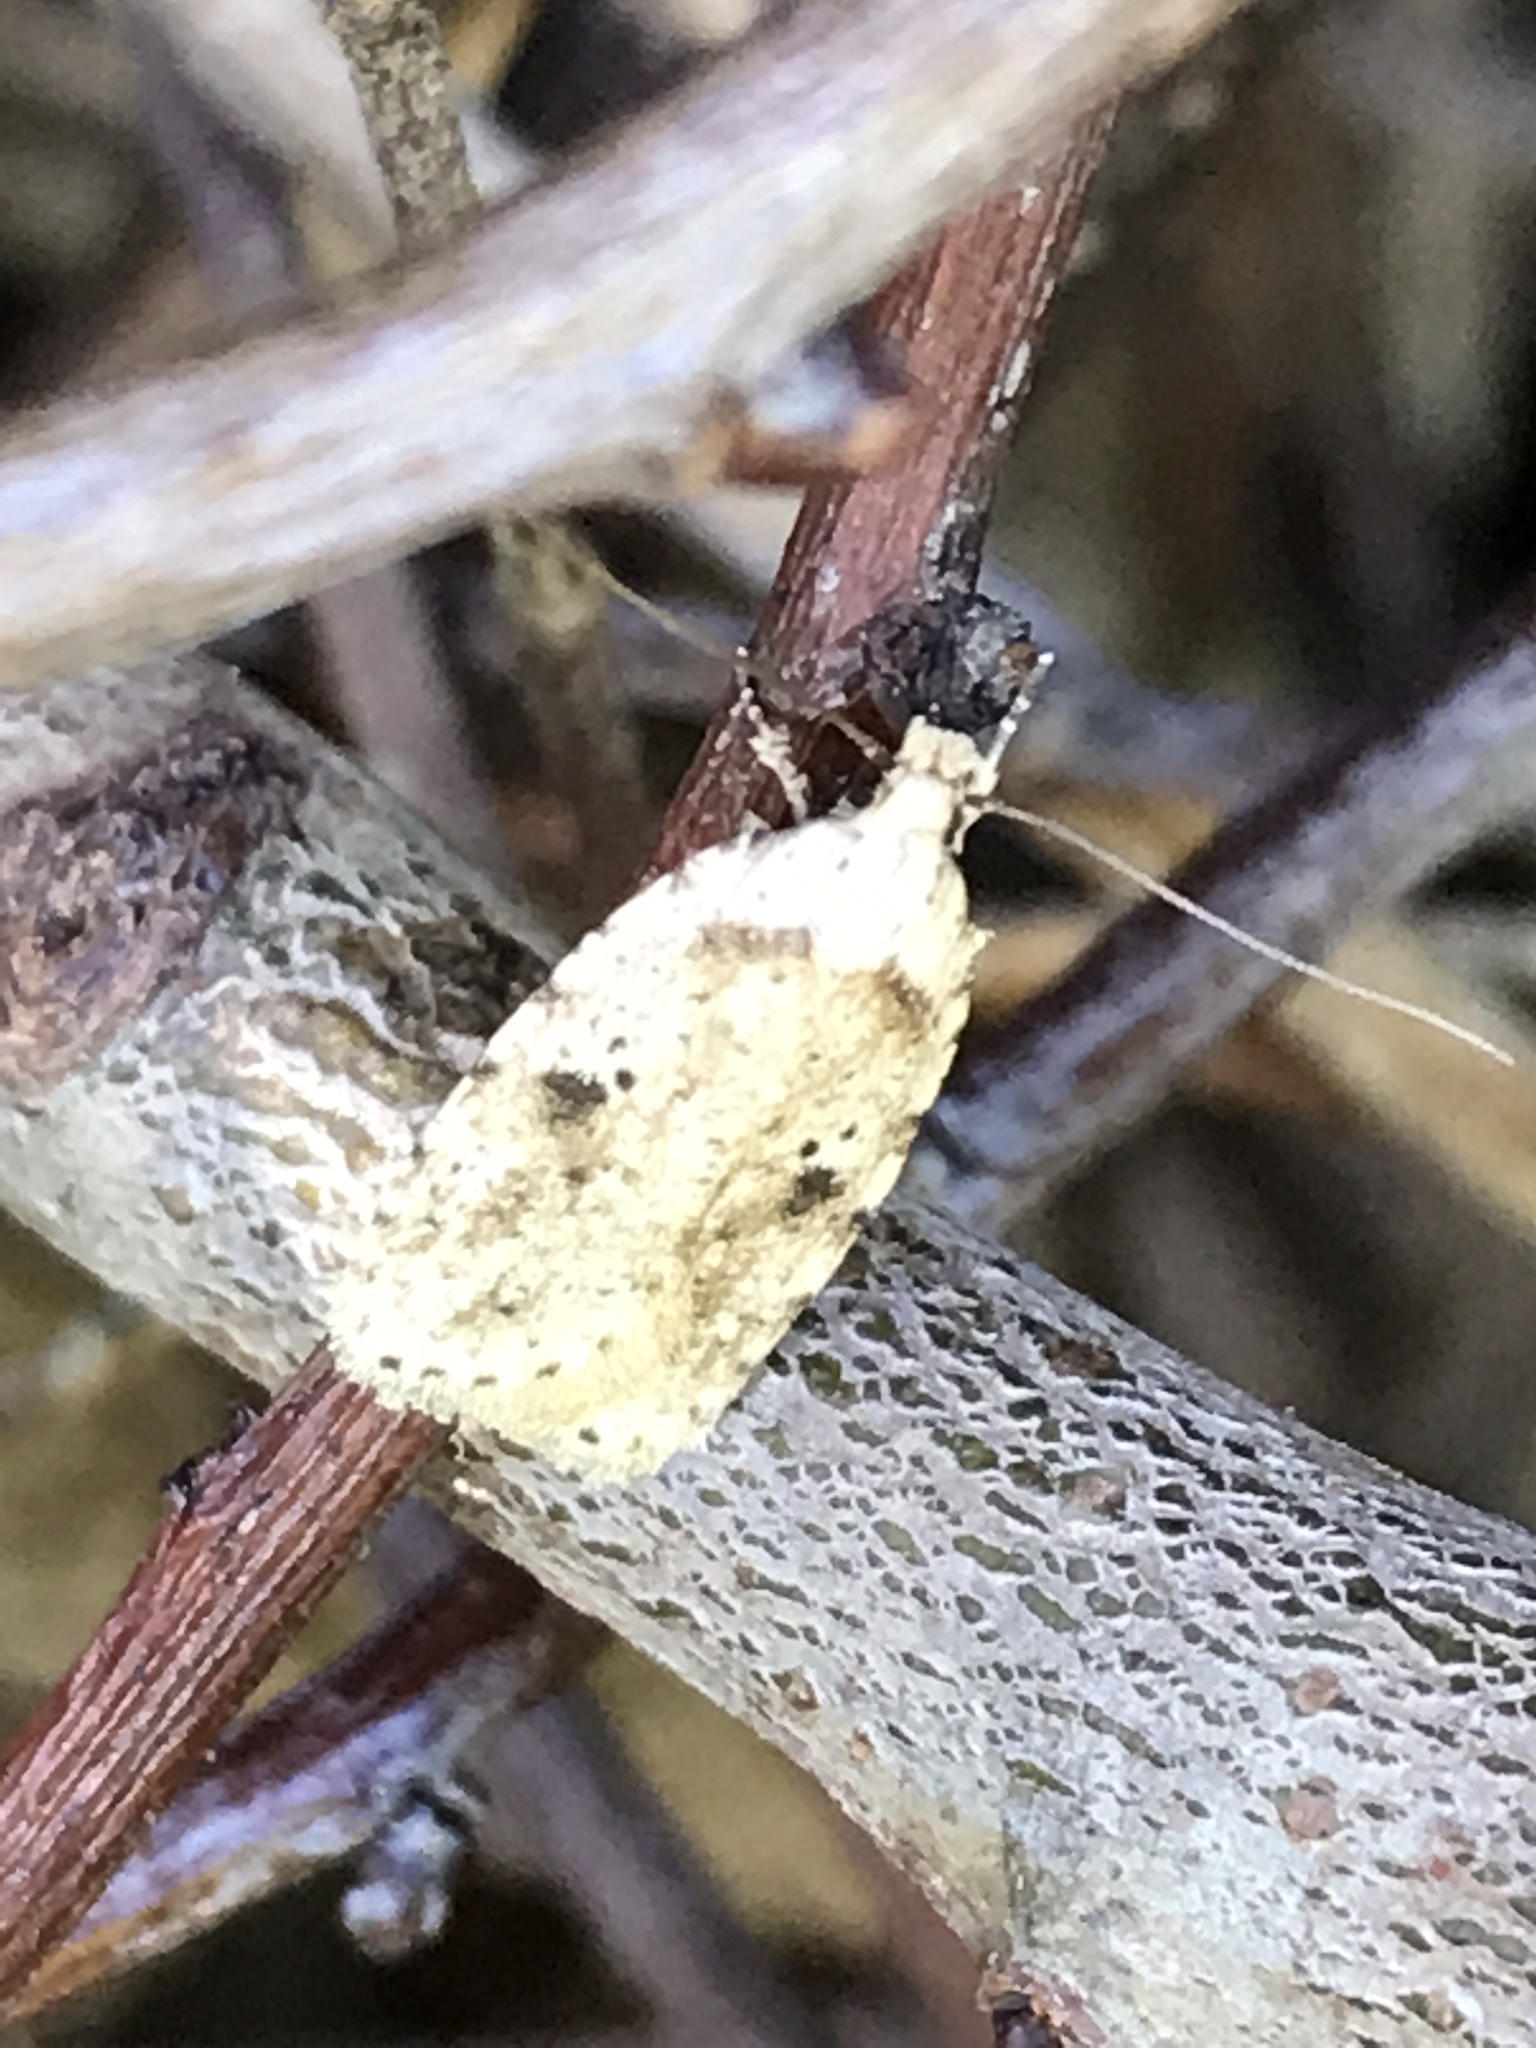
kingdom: Animalia
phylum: Arthropoda
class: Insecta
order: Lepidoptera
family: Depressariidae
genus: Agonopterix
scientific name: Agonopterix arenella
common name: Brindled flat-body
